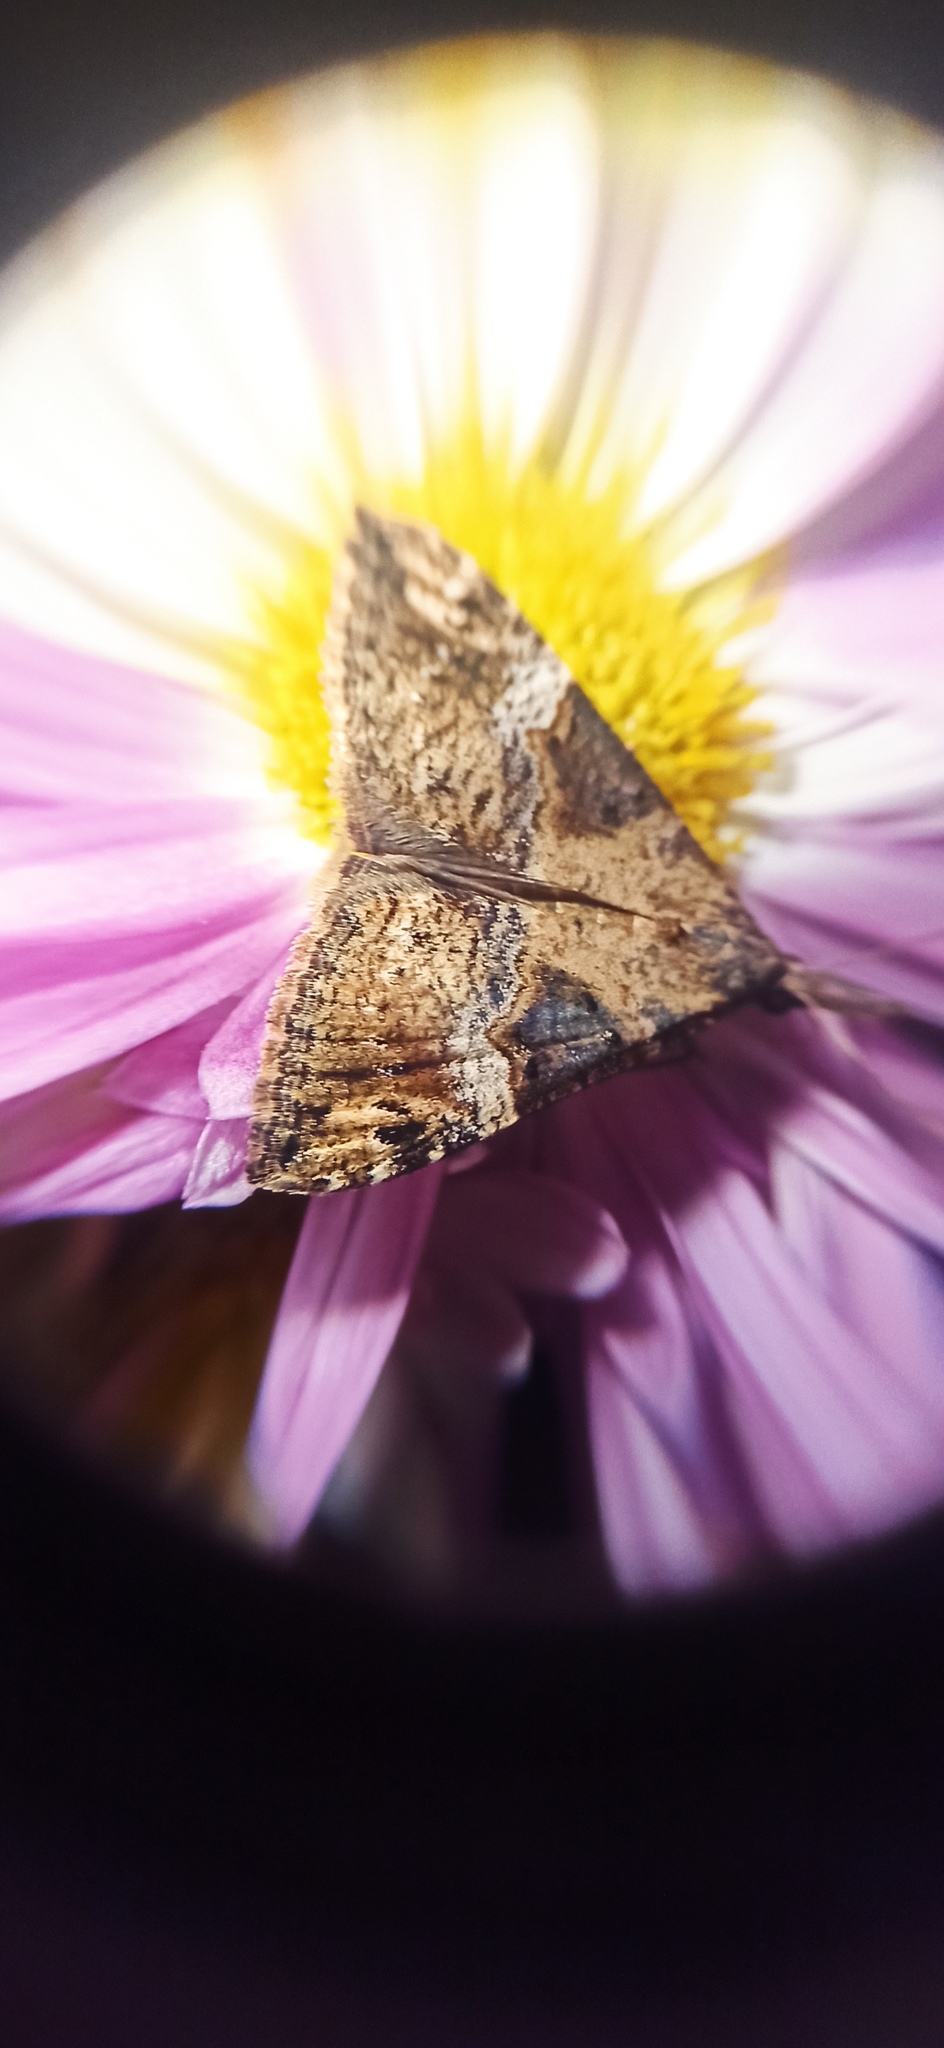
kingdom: Animalia
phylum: Arthropoda
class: Insecta
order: Lepidoptera
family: Erebidae
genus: Hypena
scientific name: Hypena obsitalis
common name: Bloxworth snout
